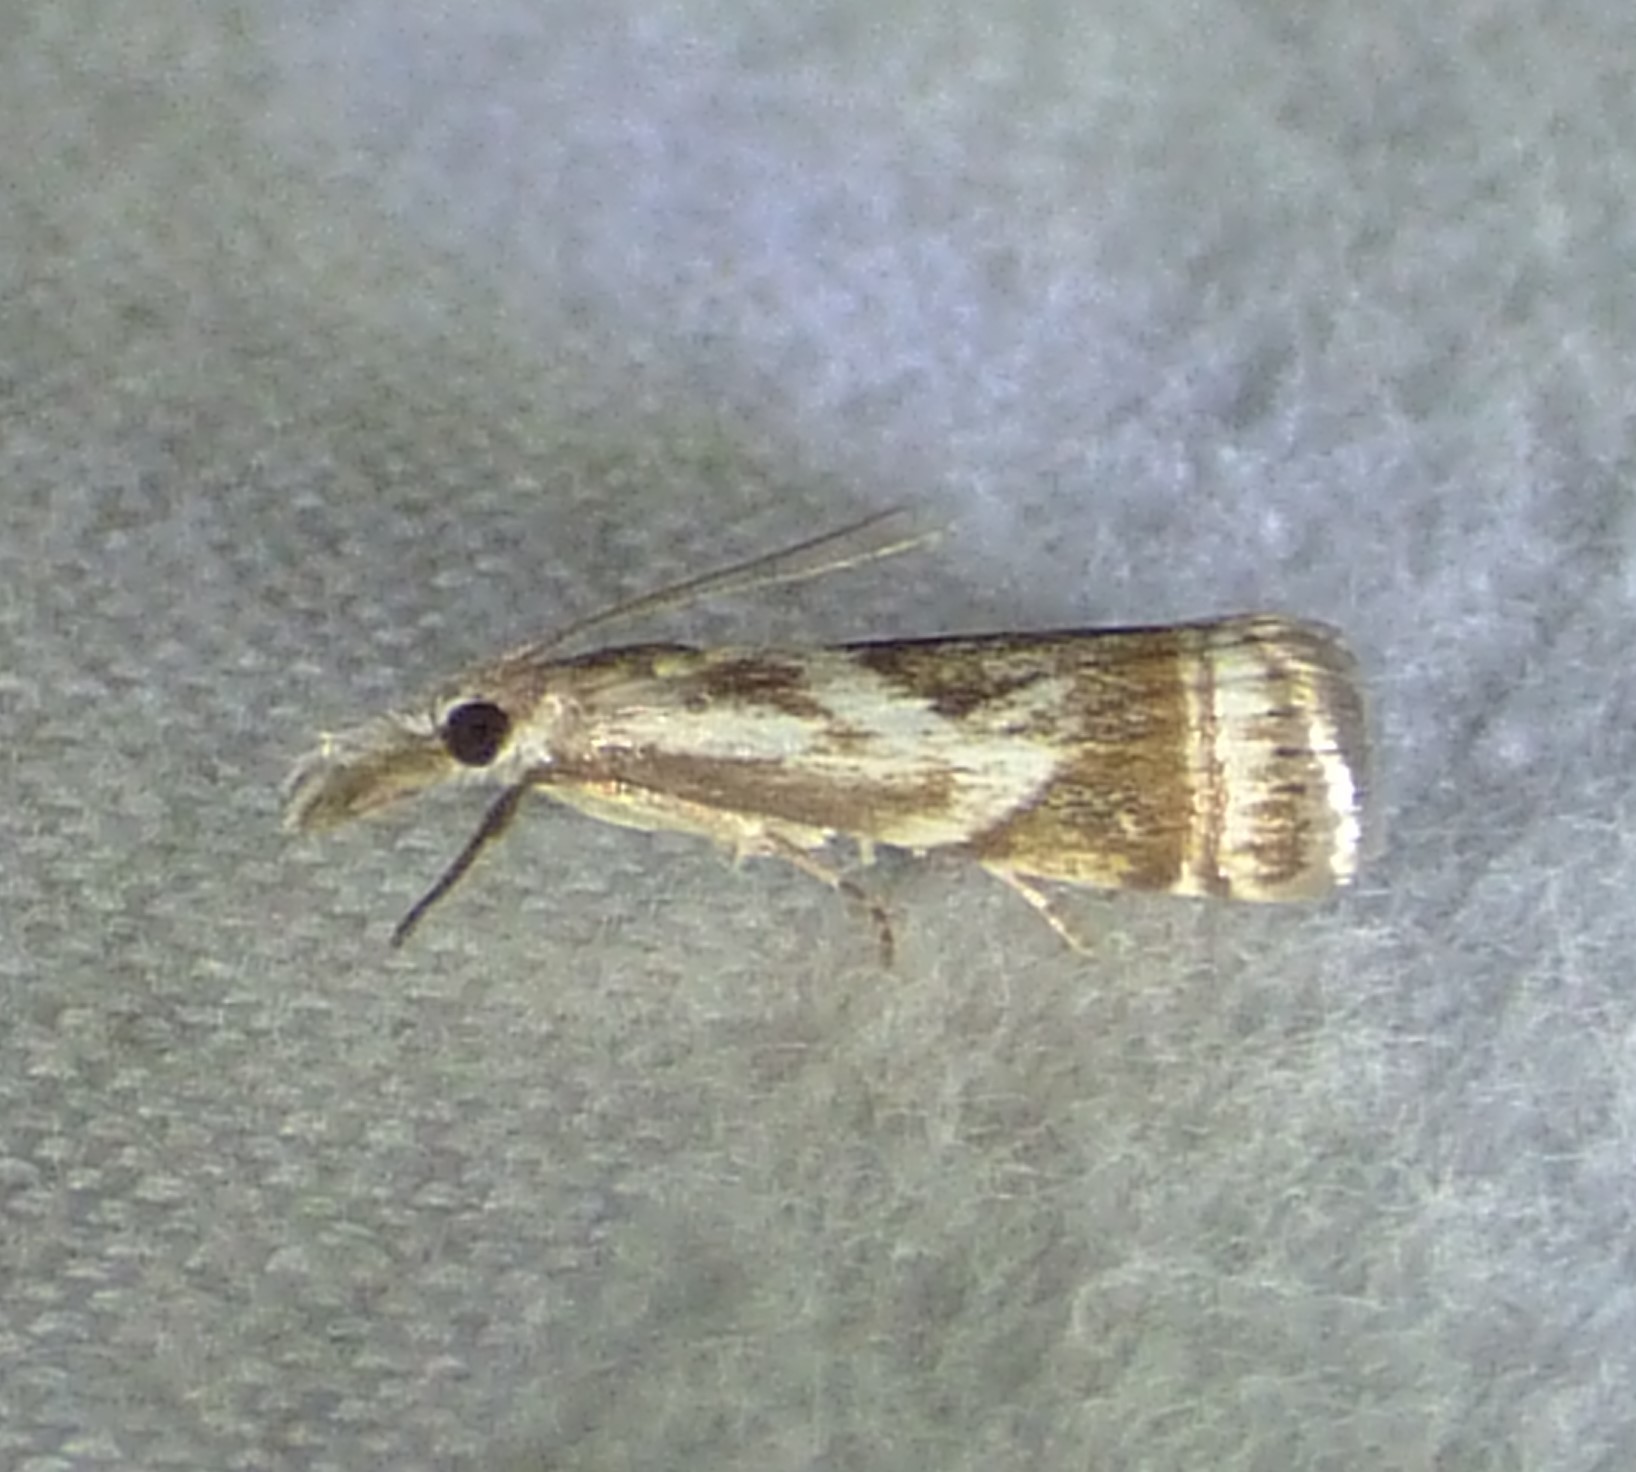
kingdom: Animalia
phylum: Arthropoda
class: Insecta
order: Lepidoptera
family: Crambidae
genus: Microcrambus
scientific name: Microcrambus elegans
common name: Elegant grass-veneer
